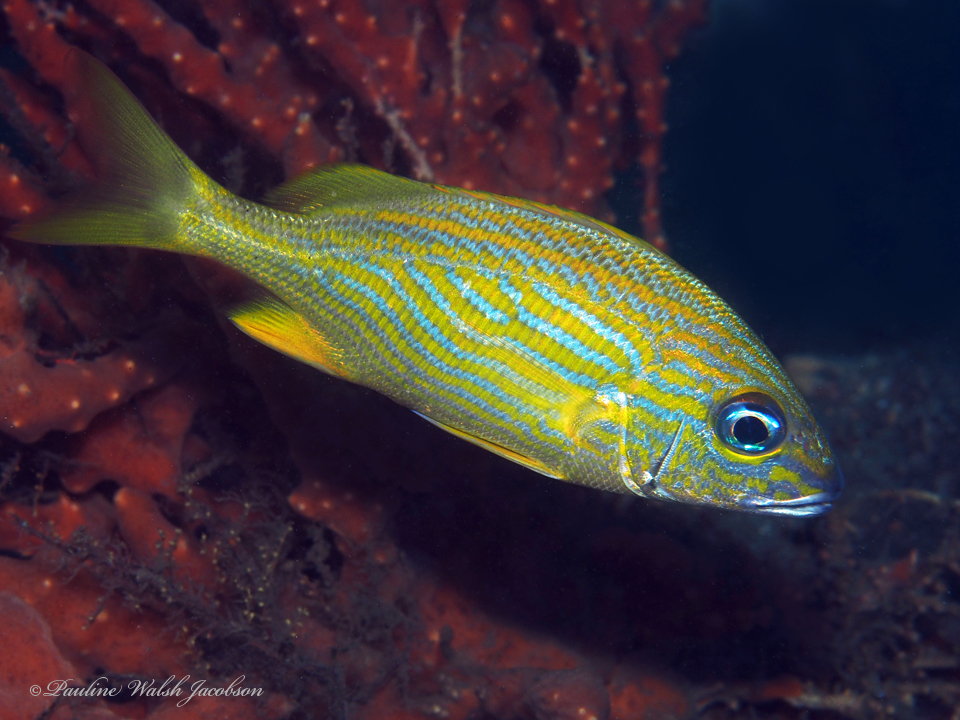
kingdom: Animalia
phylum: Chordata
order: Perciformes
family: Haemulidae
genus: Haemulon
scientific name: Haemulon flavolineatum
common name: French grunt
